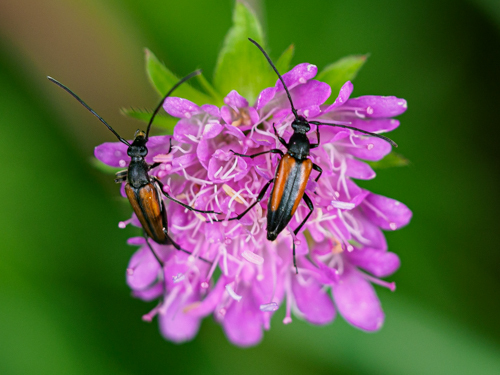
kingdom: Animalia
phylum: Arthropoda
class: Insecta
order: Coleoptera
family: Cerambycidae
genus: Stenurella
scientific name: Stenurella melanura
